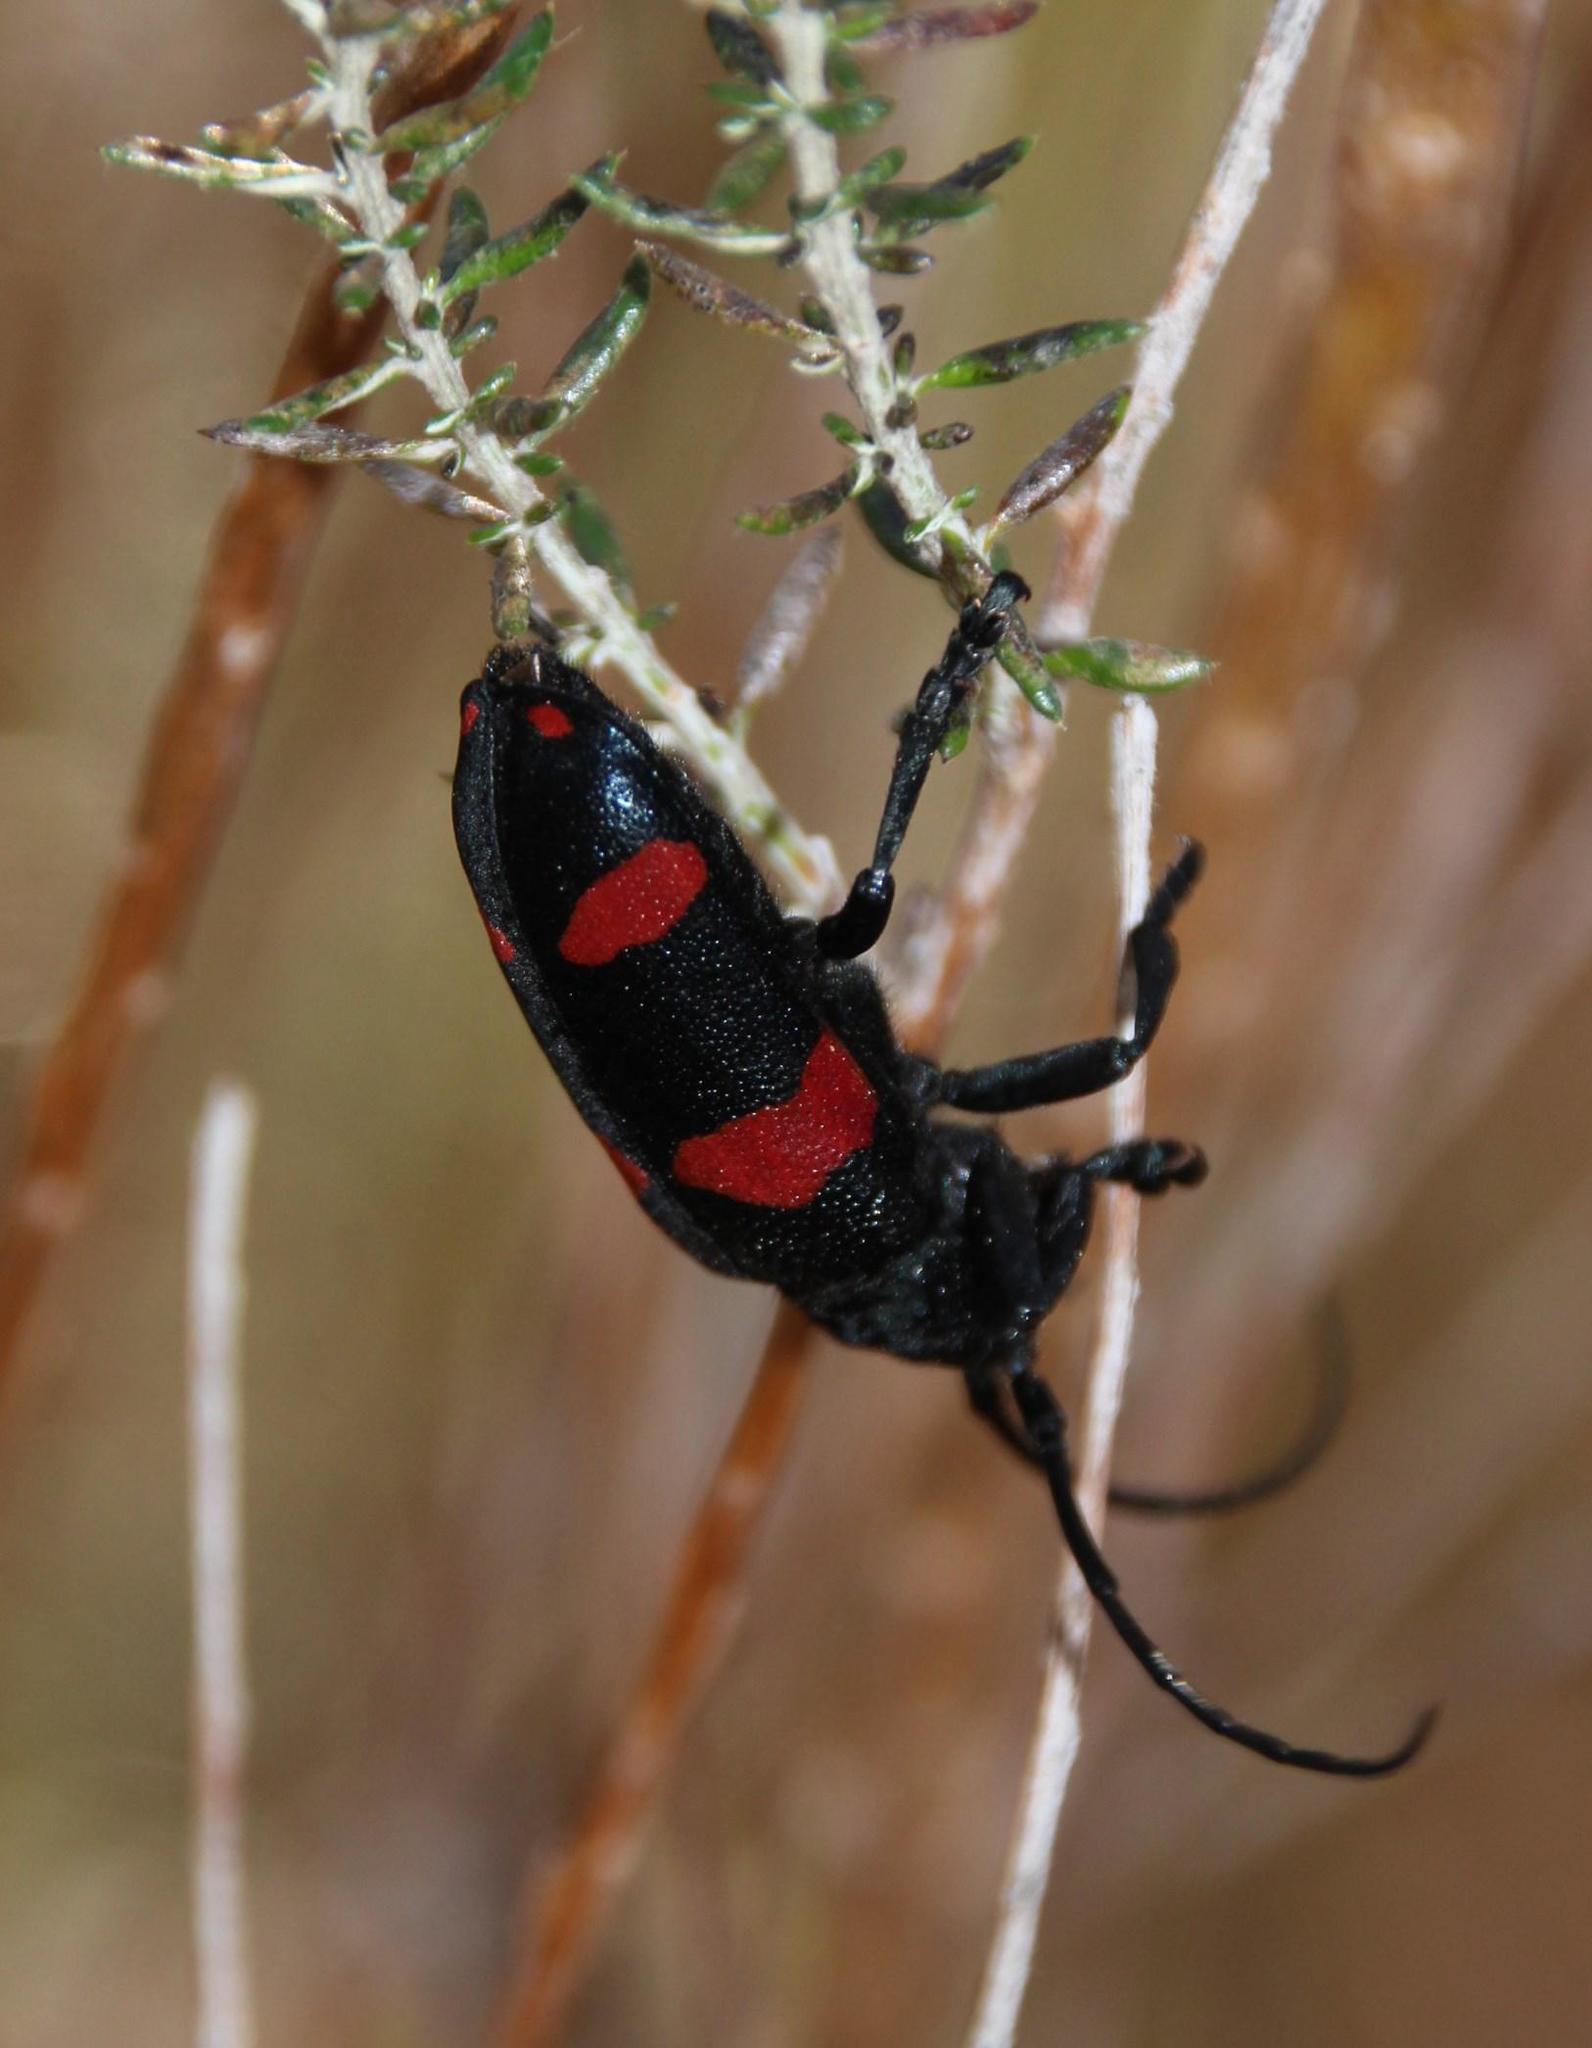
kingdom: Animalia
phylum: Arthropoda
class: Insecta
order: Coleoptera
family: Cerambycidae
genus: Ceroplesis
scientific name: Ceroplesis aethiops
